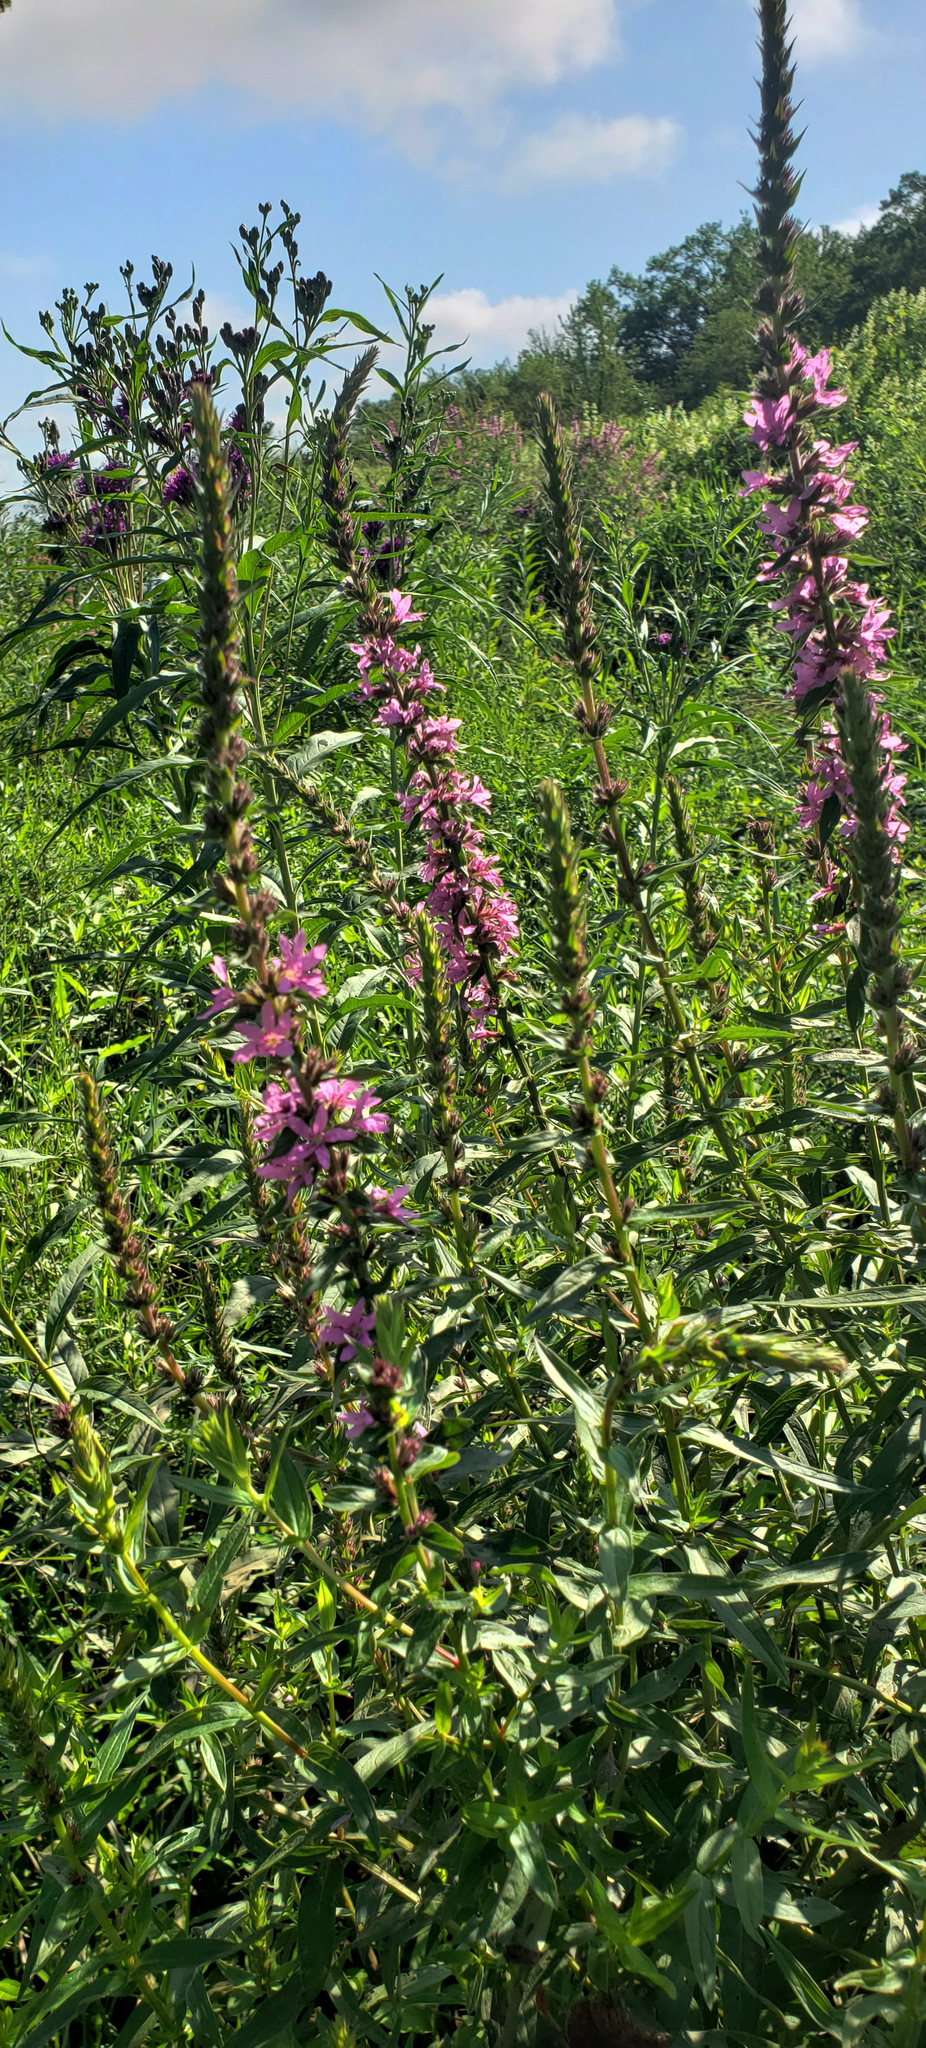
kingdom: Plantae
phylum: Tracheophyta
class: Magnoliopsida
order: Myrtales
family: Lythraceae
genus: Lythrum
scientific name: Lythrum salicaria
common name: Purple loosestrife
